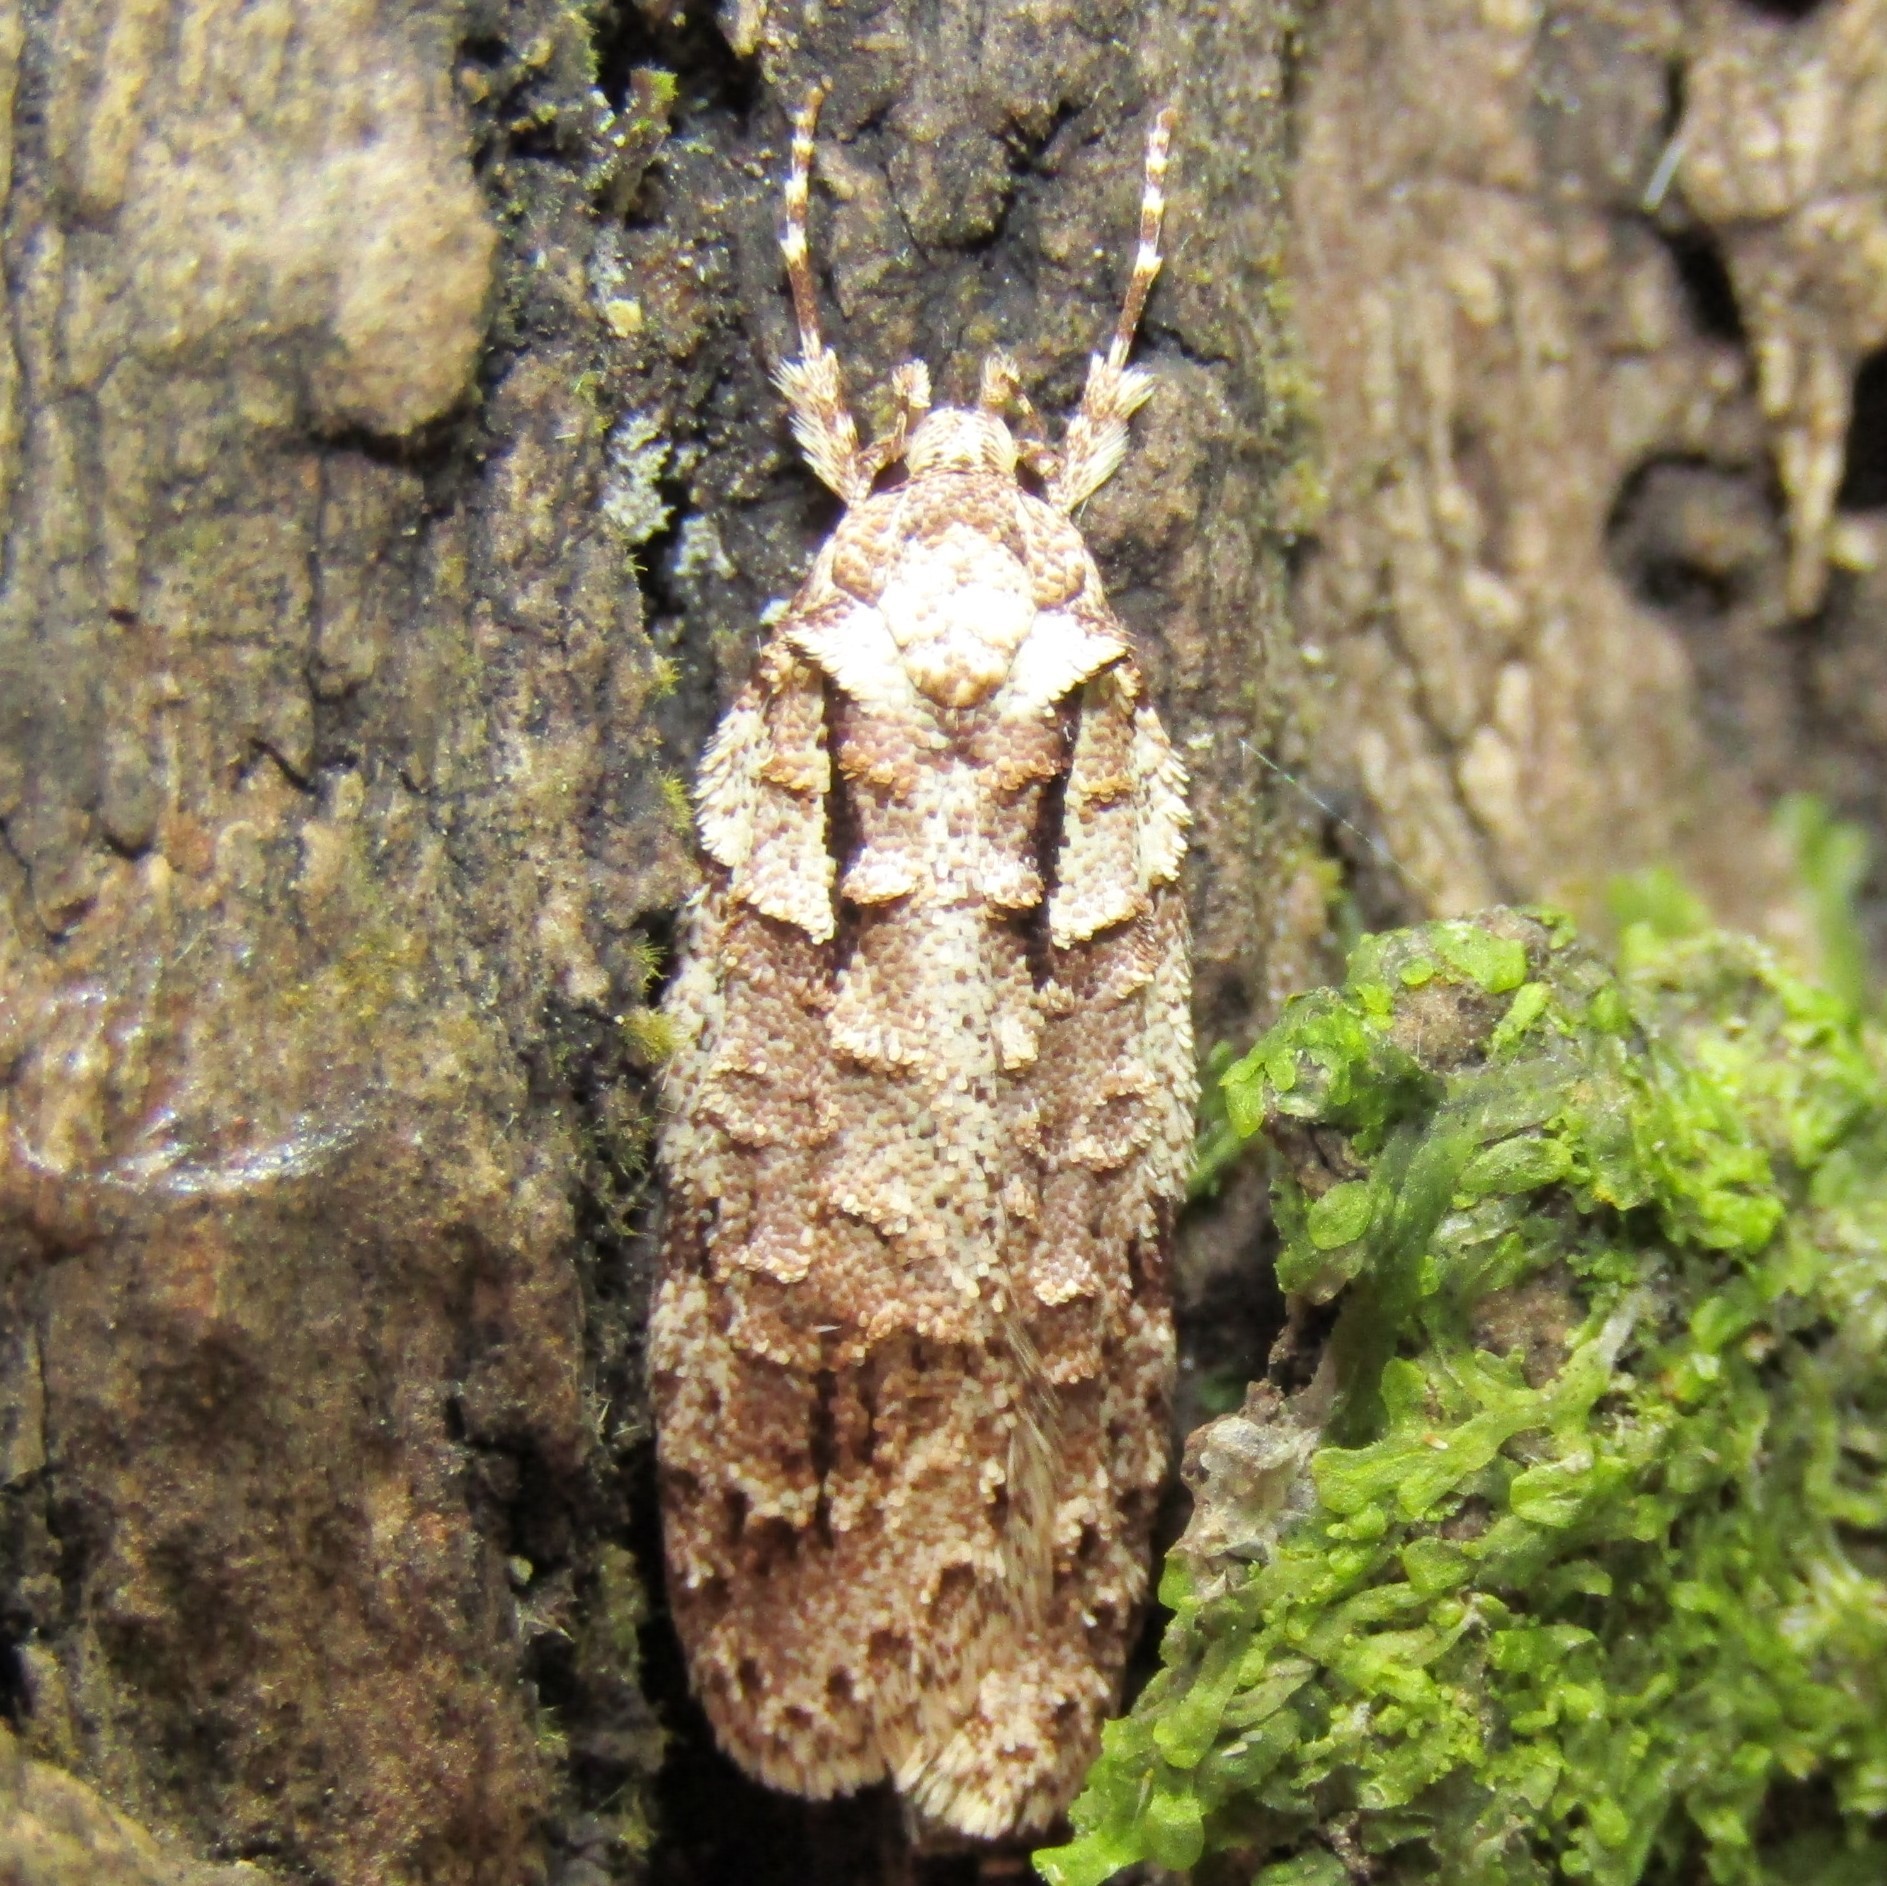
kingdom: Animalia
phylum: Arthropoda
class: Insecta
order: Lepidoptera
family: Oecophoridae
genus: Izatha
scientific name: Izatha attactella
